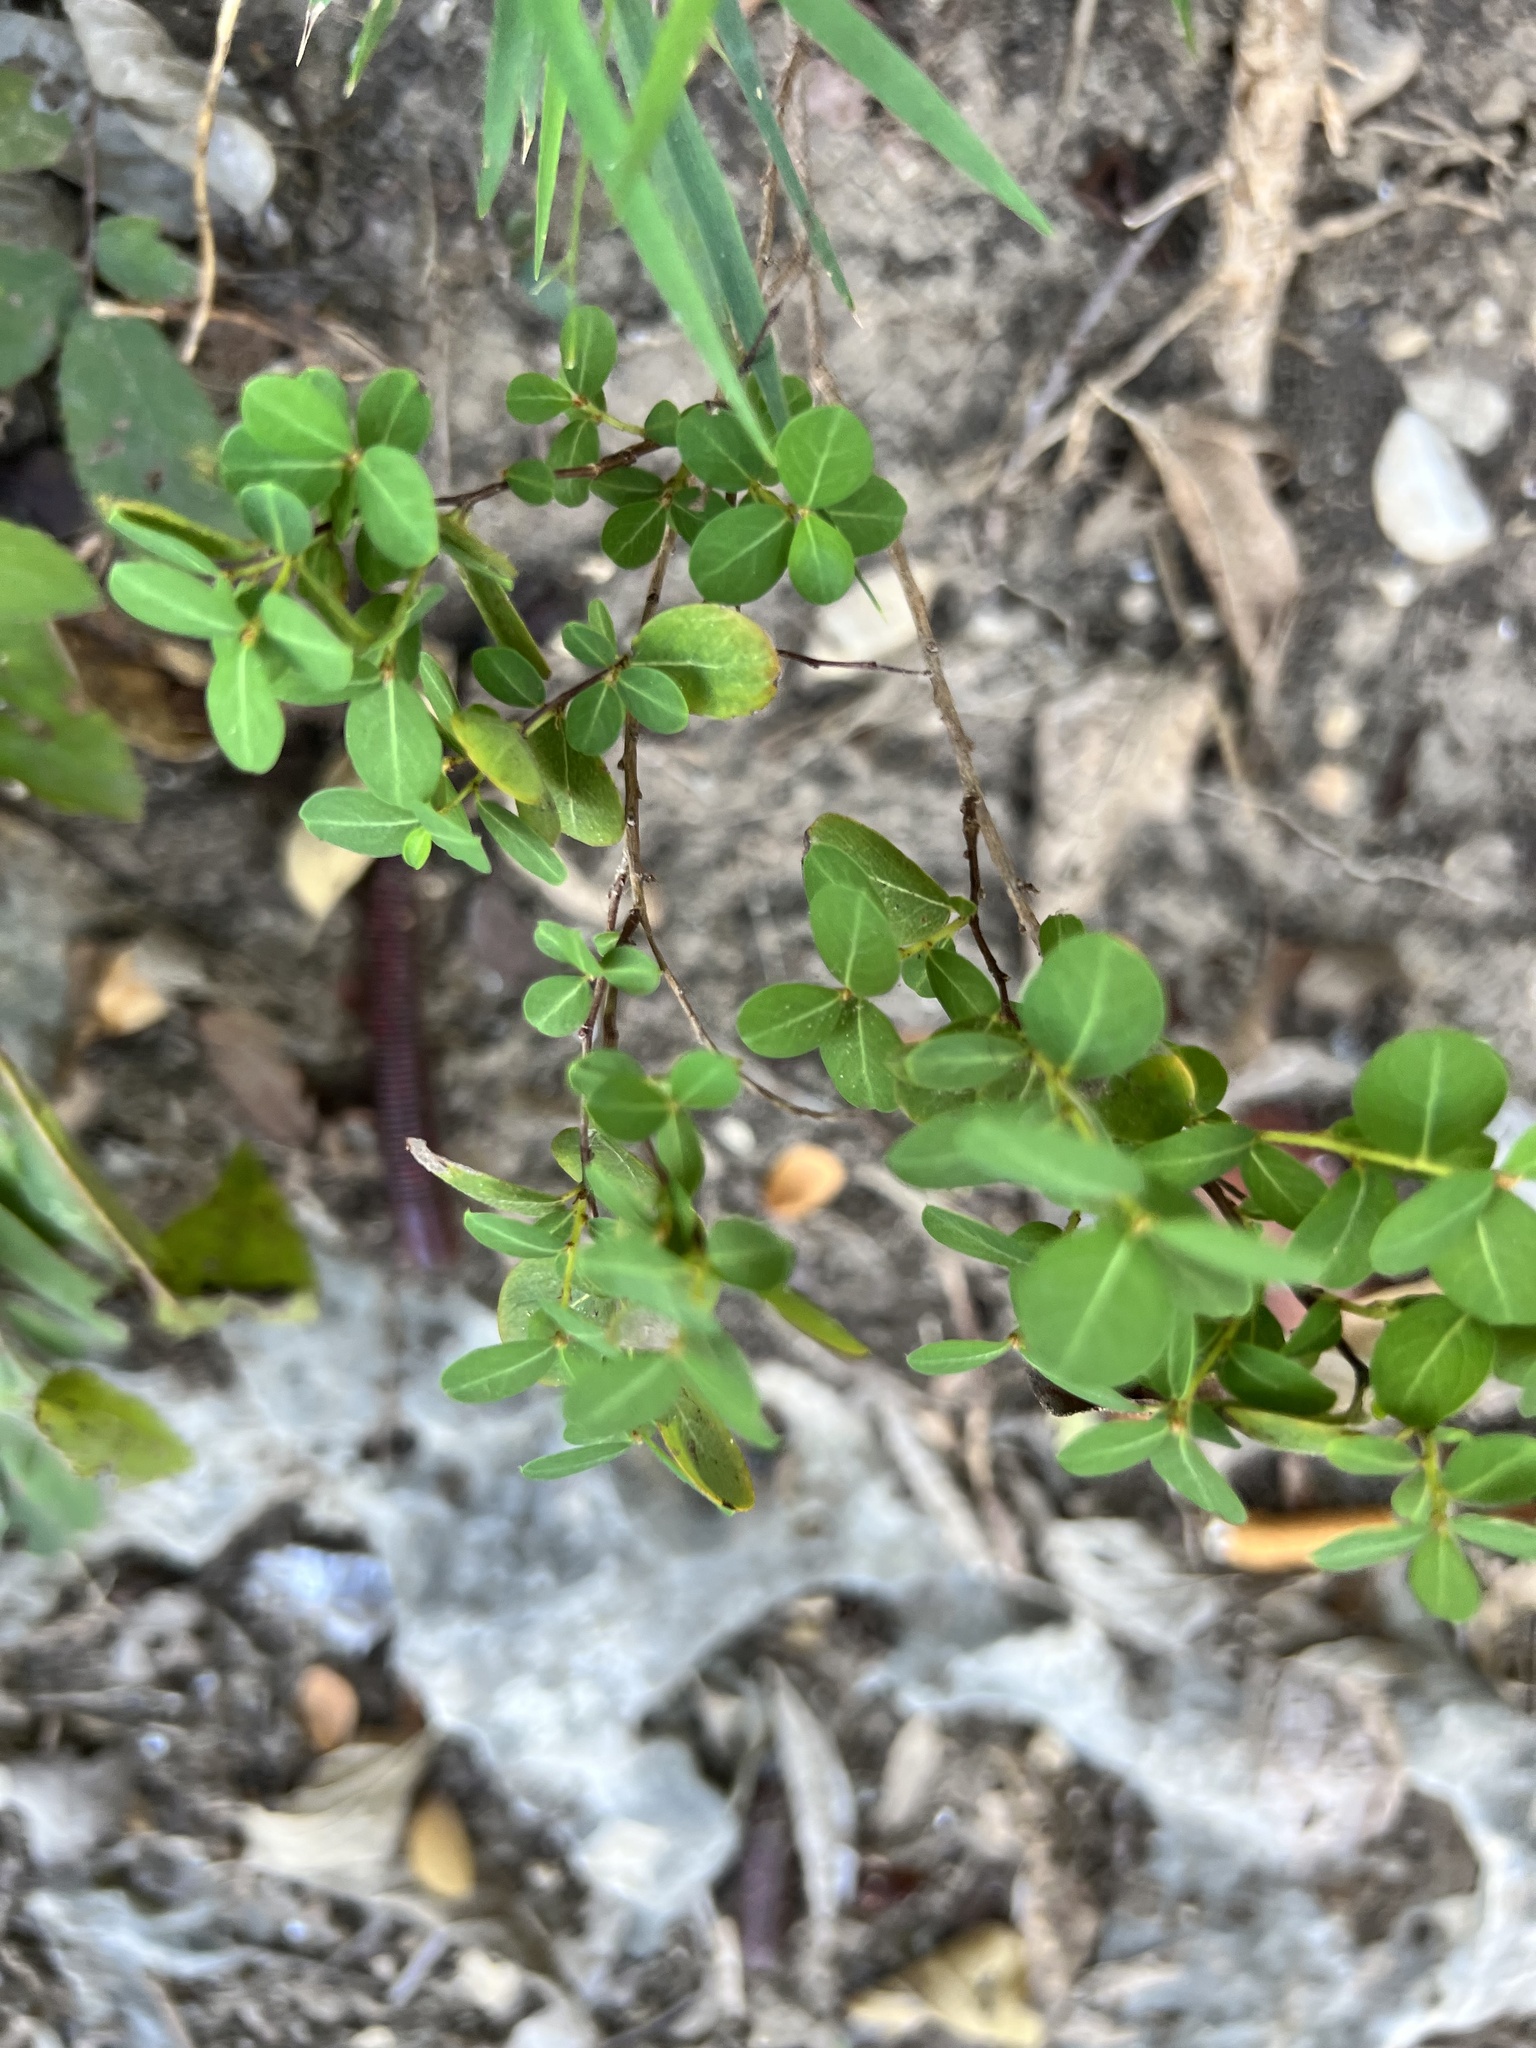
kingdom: Plantae
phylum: Tracheophyta
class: Magnoliopsida
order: Malpighiales
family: Phyllanthaceae
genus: Phyllanthopsis
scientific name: Phyllanthopsis phyllanthoides
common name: Missouri maidenbush
